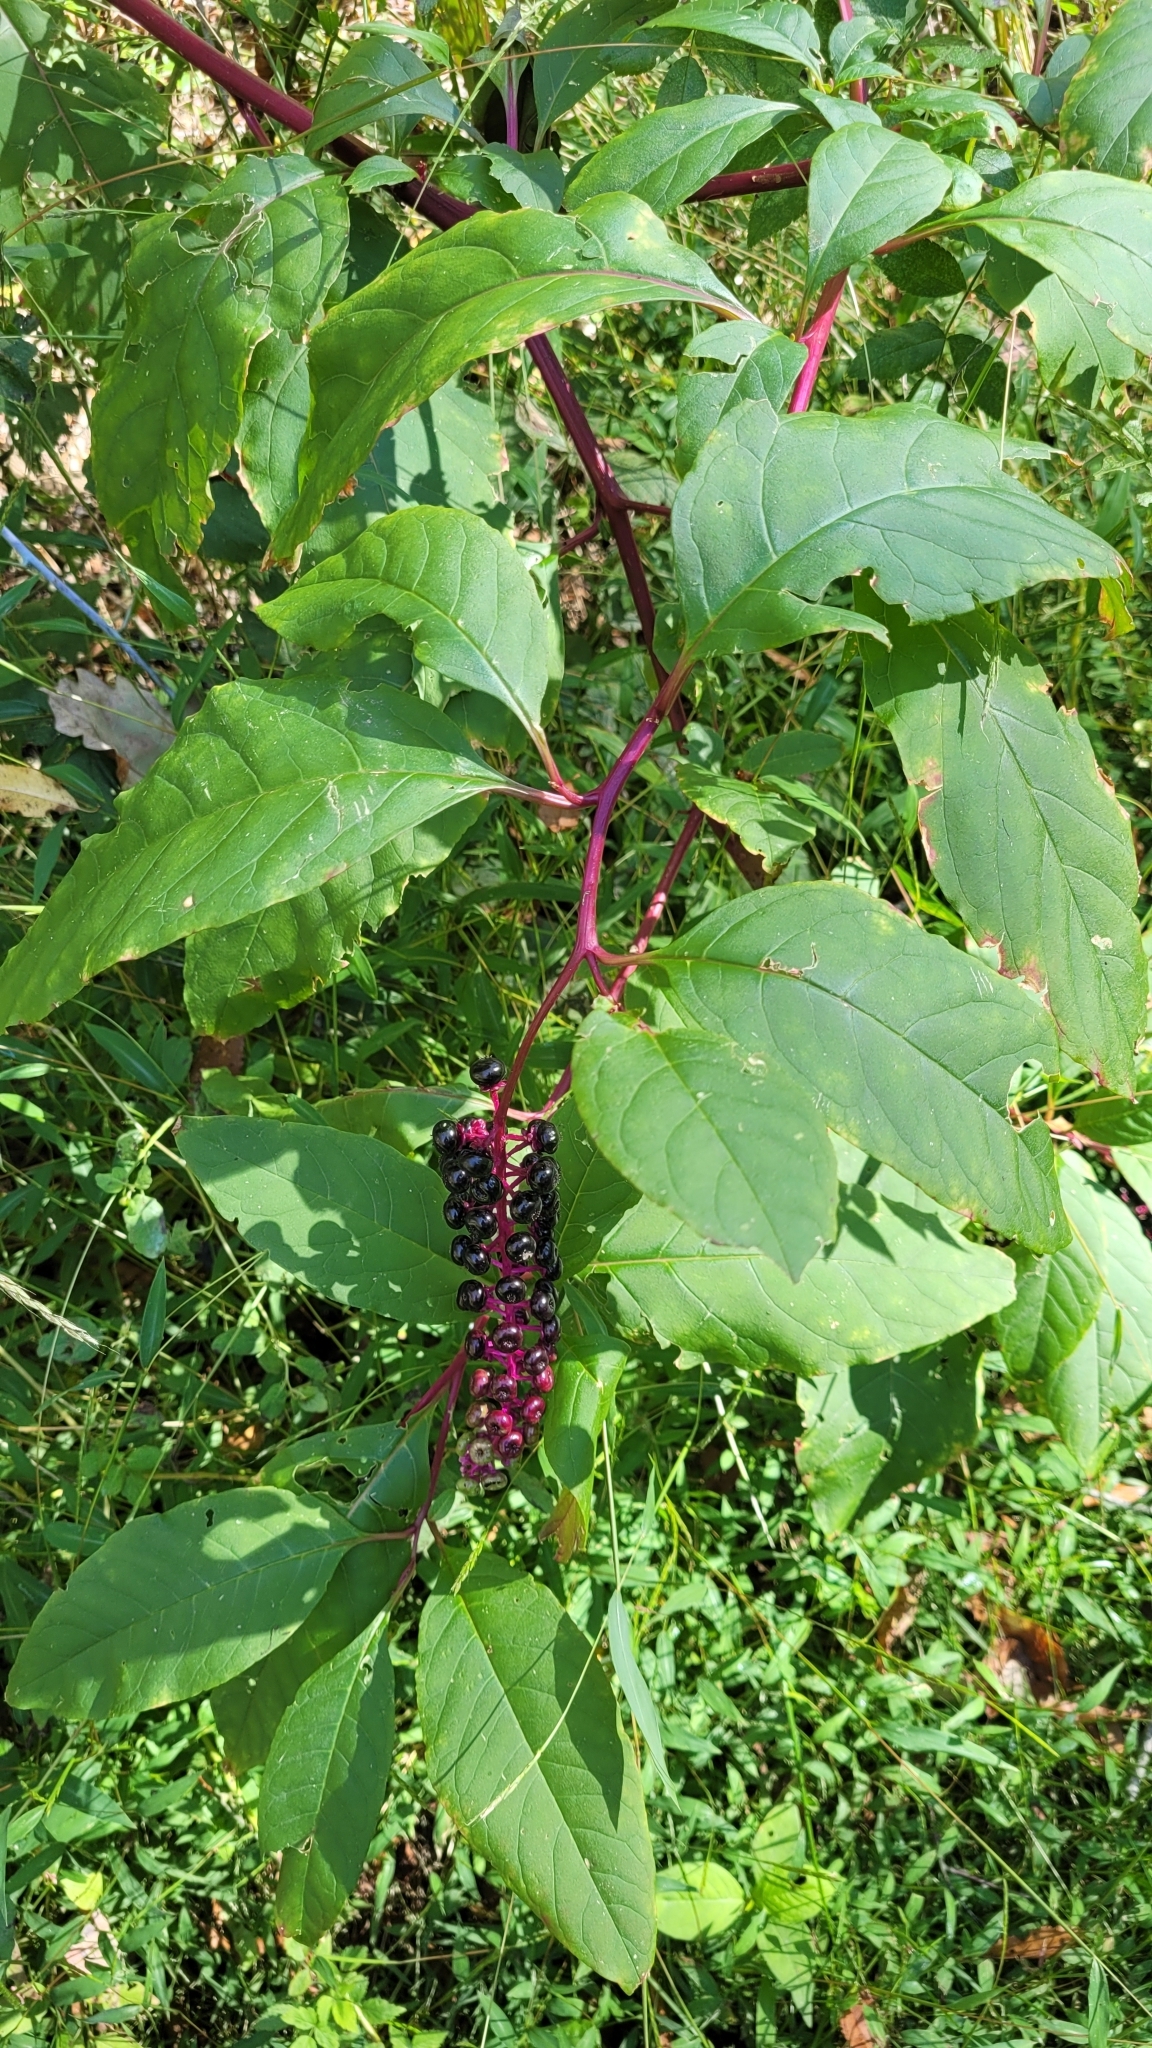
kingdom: Plantae
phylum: Tracheophyta
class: Magnoliopsida
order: Caryophyllales
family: Phytolaccaceae
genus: Phytolacca
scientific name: Phytolacca americana
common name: American pokeweed
